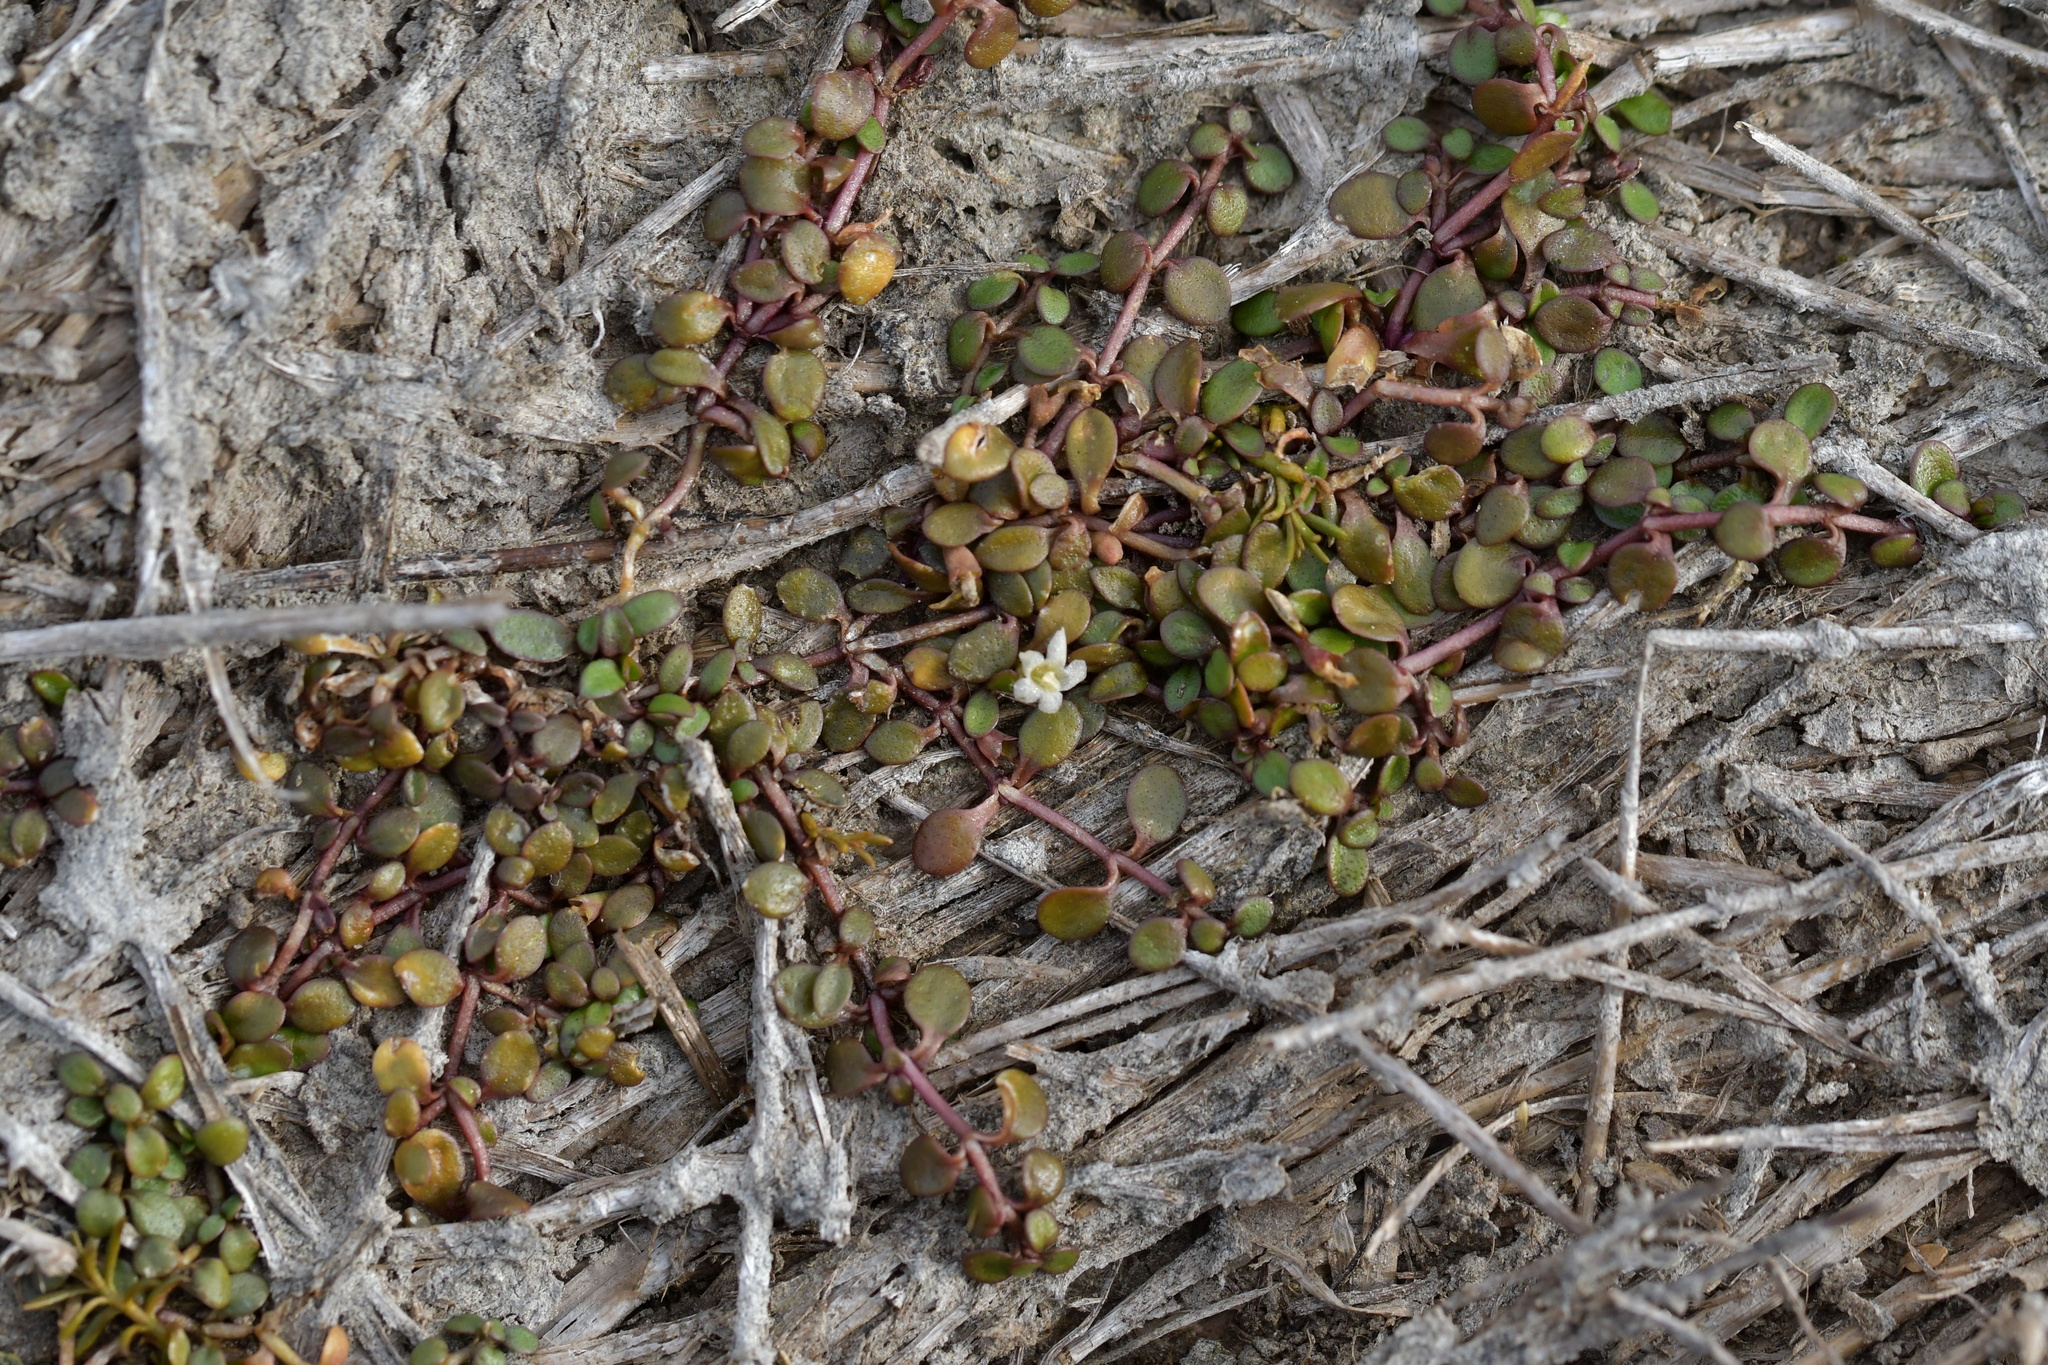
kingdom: Plantae
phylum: Tracheophyta
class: Magnoliopsida
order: Lamiales
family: Phrymaceae
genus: Glossostigma
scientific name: Glossostigma elatinoides
